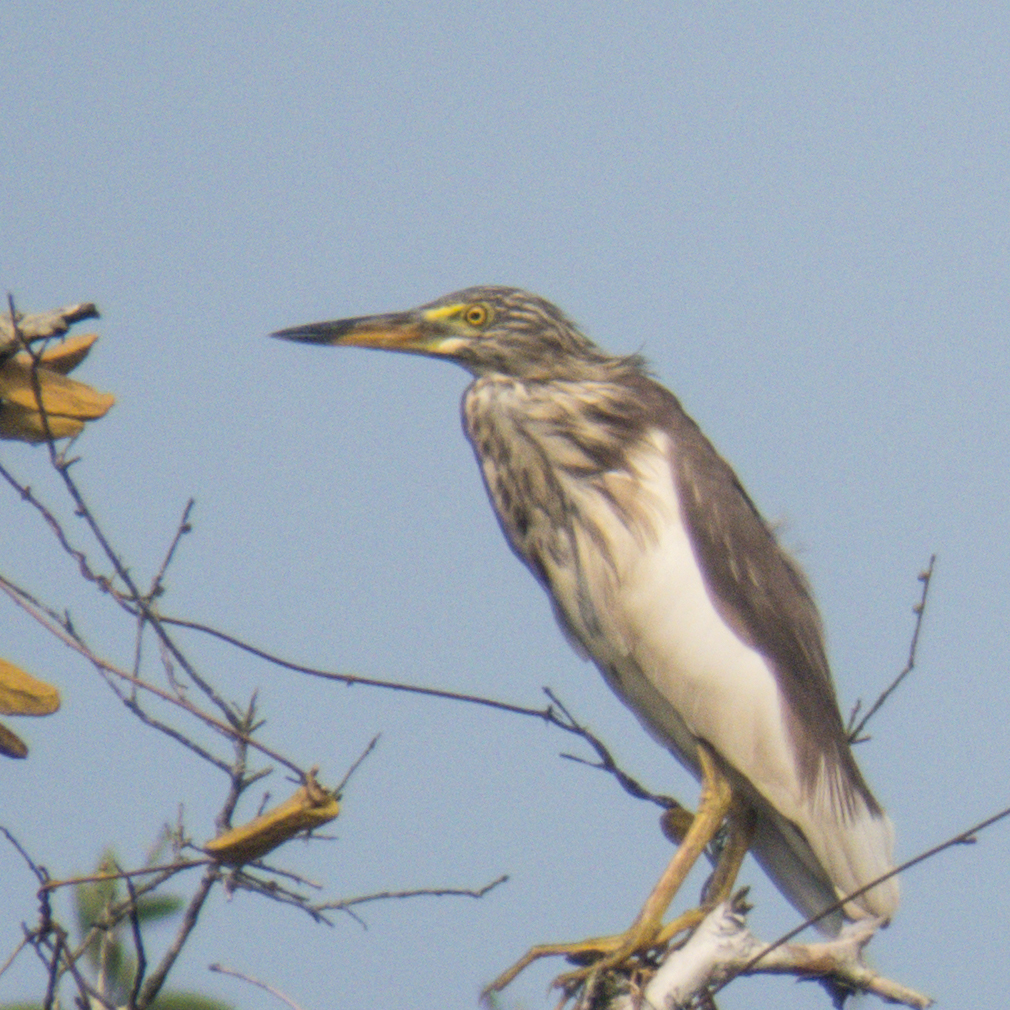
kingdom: Animalia
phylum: Chordata
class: Aves
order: Pelecaniformes
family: Ardeidae
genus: Ardeola
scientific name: Ardeola
